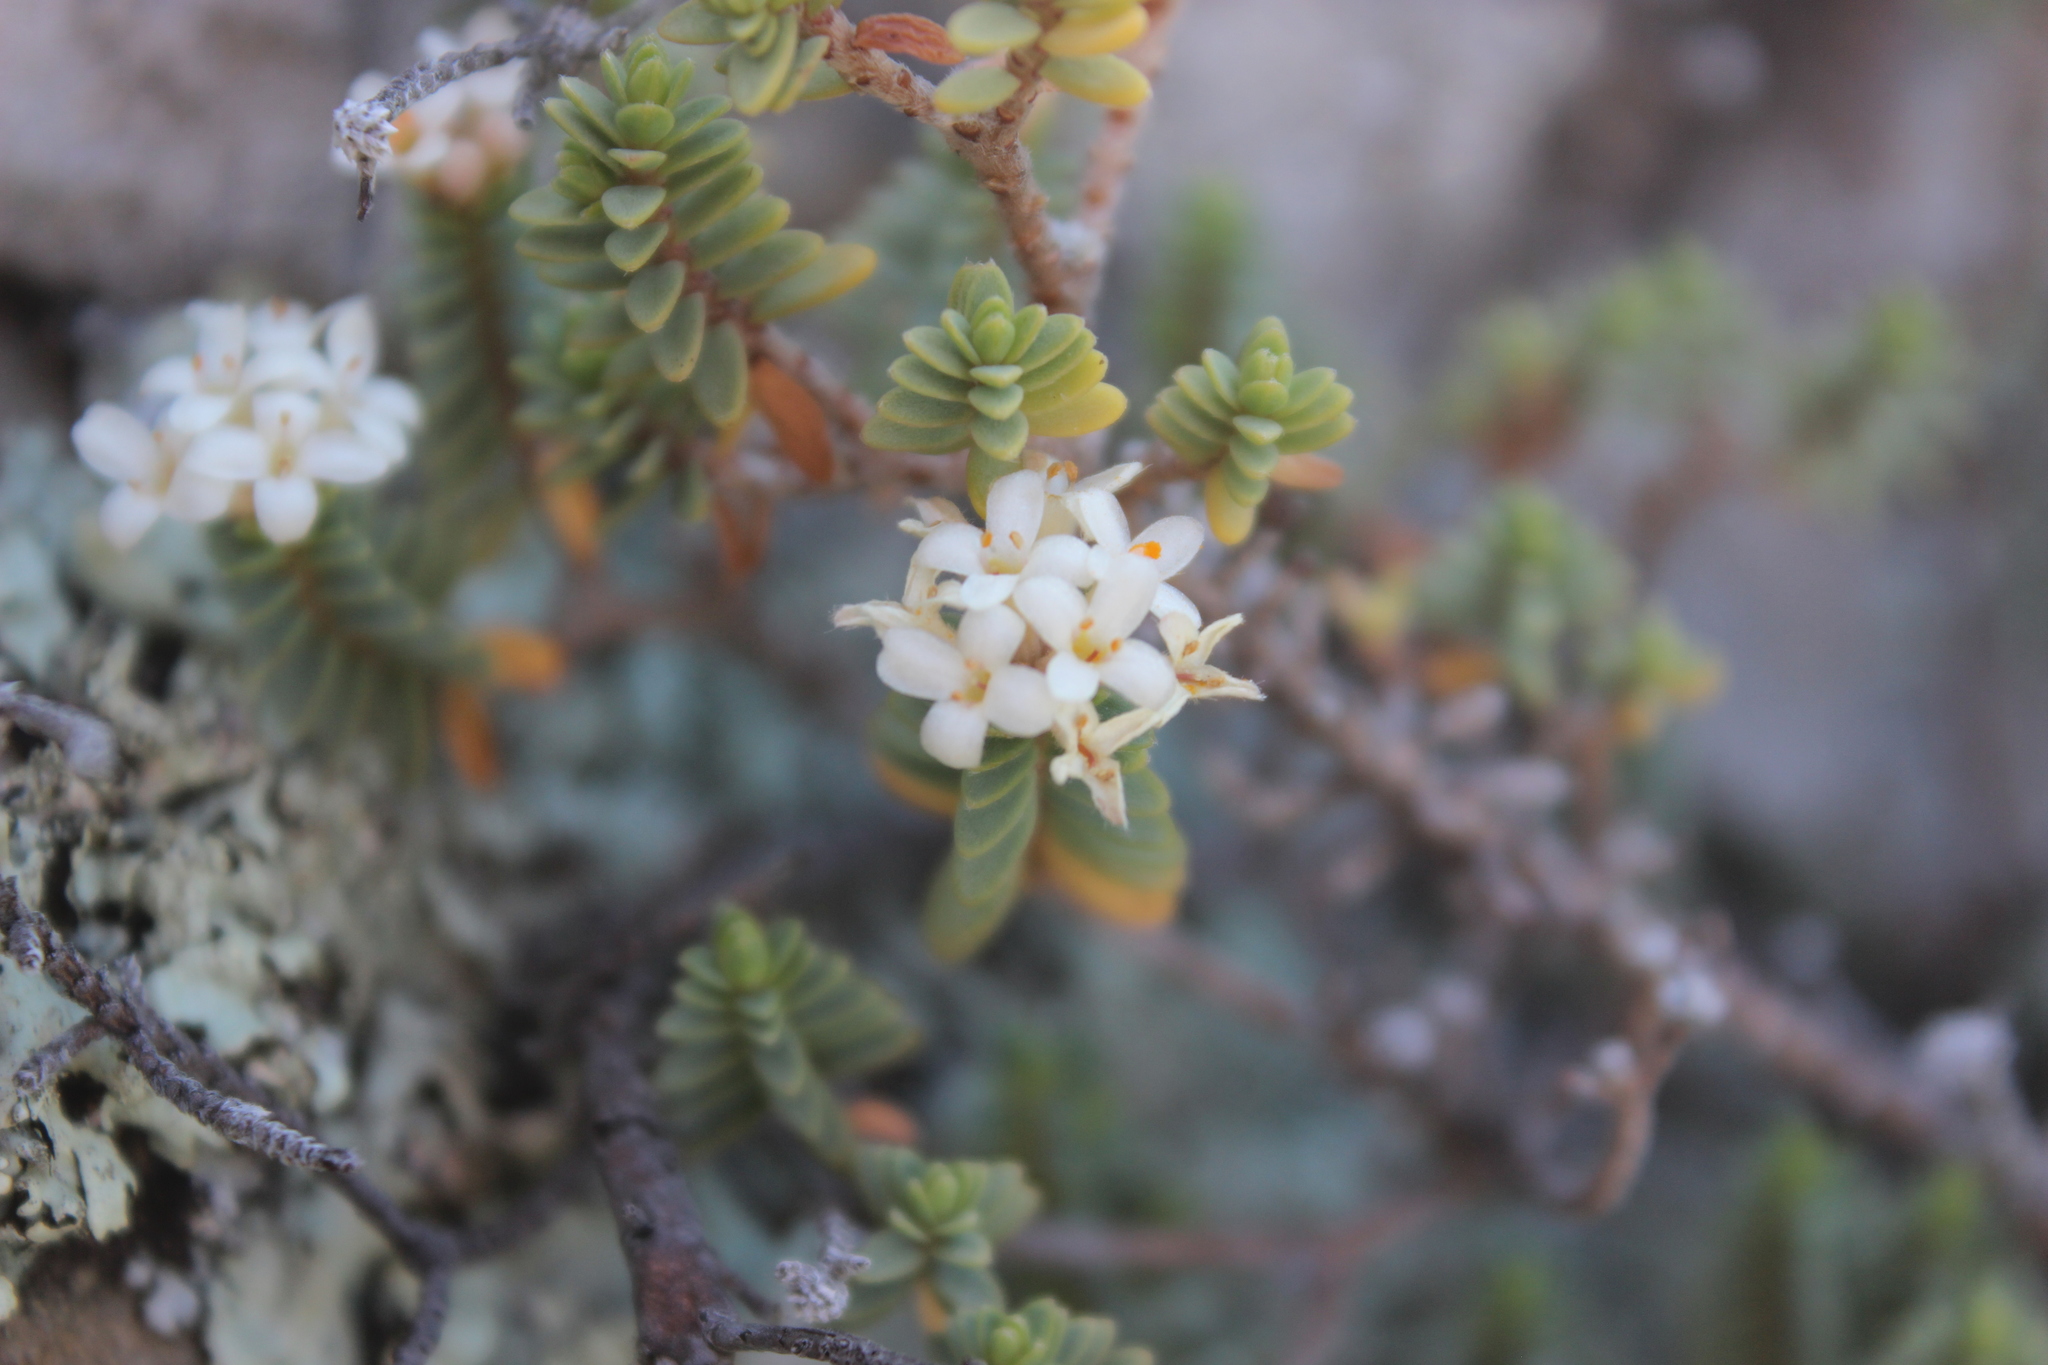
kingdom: Plantae
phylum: Tracheophyta
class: Magnoliopsida
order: Malvales
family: Thymelaeaceae
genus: Pimelea
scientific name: Pimelea prostrata
